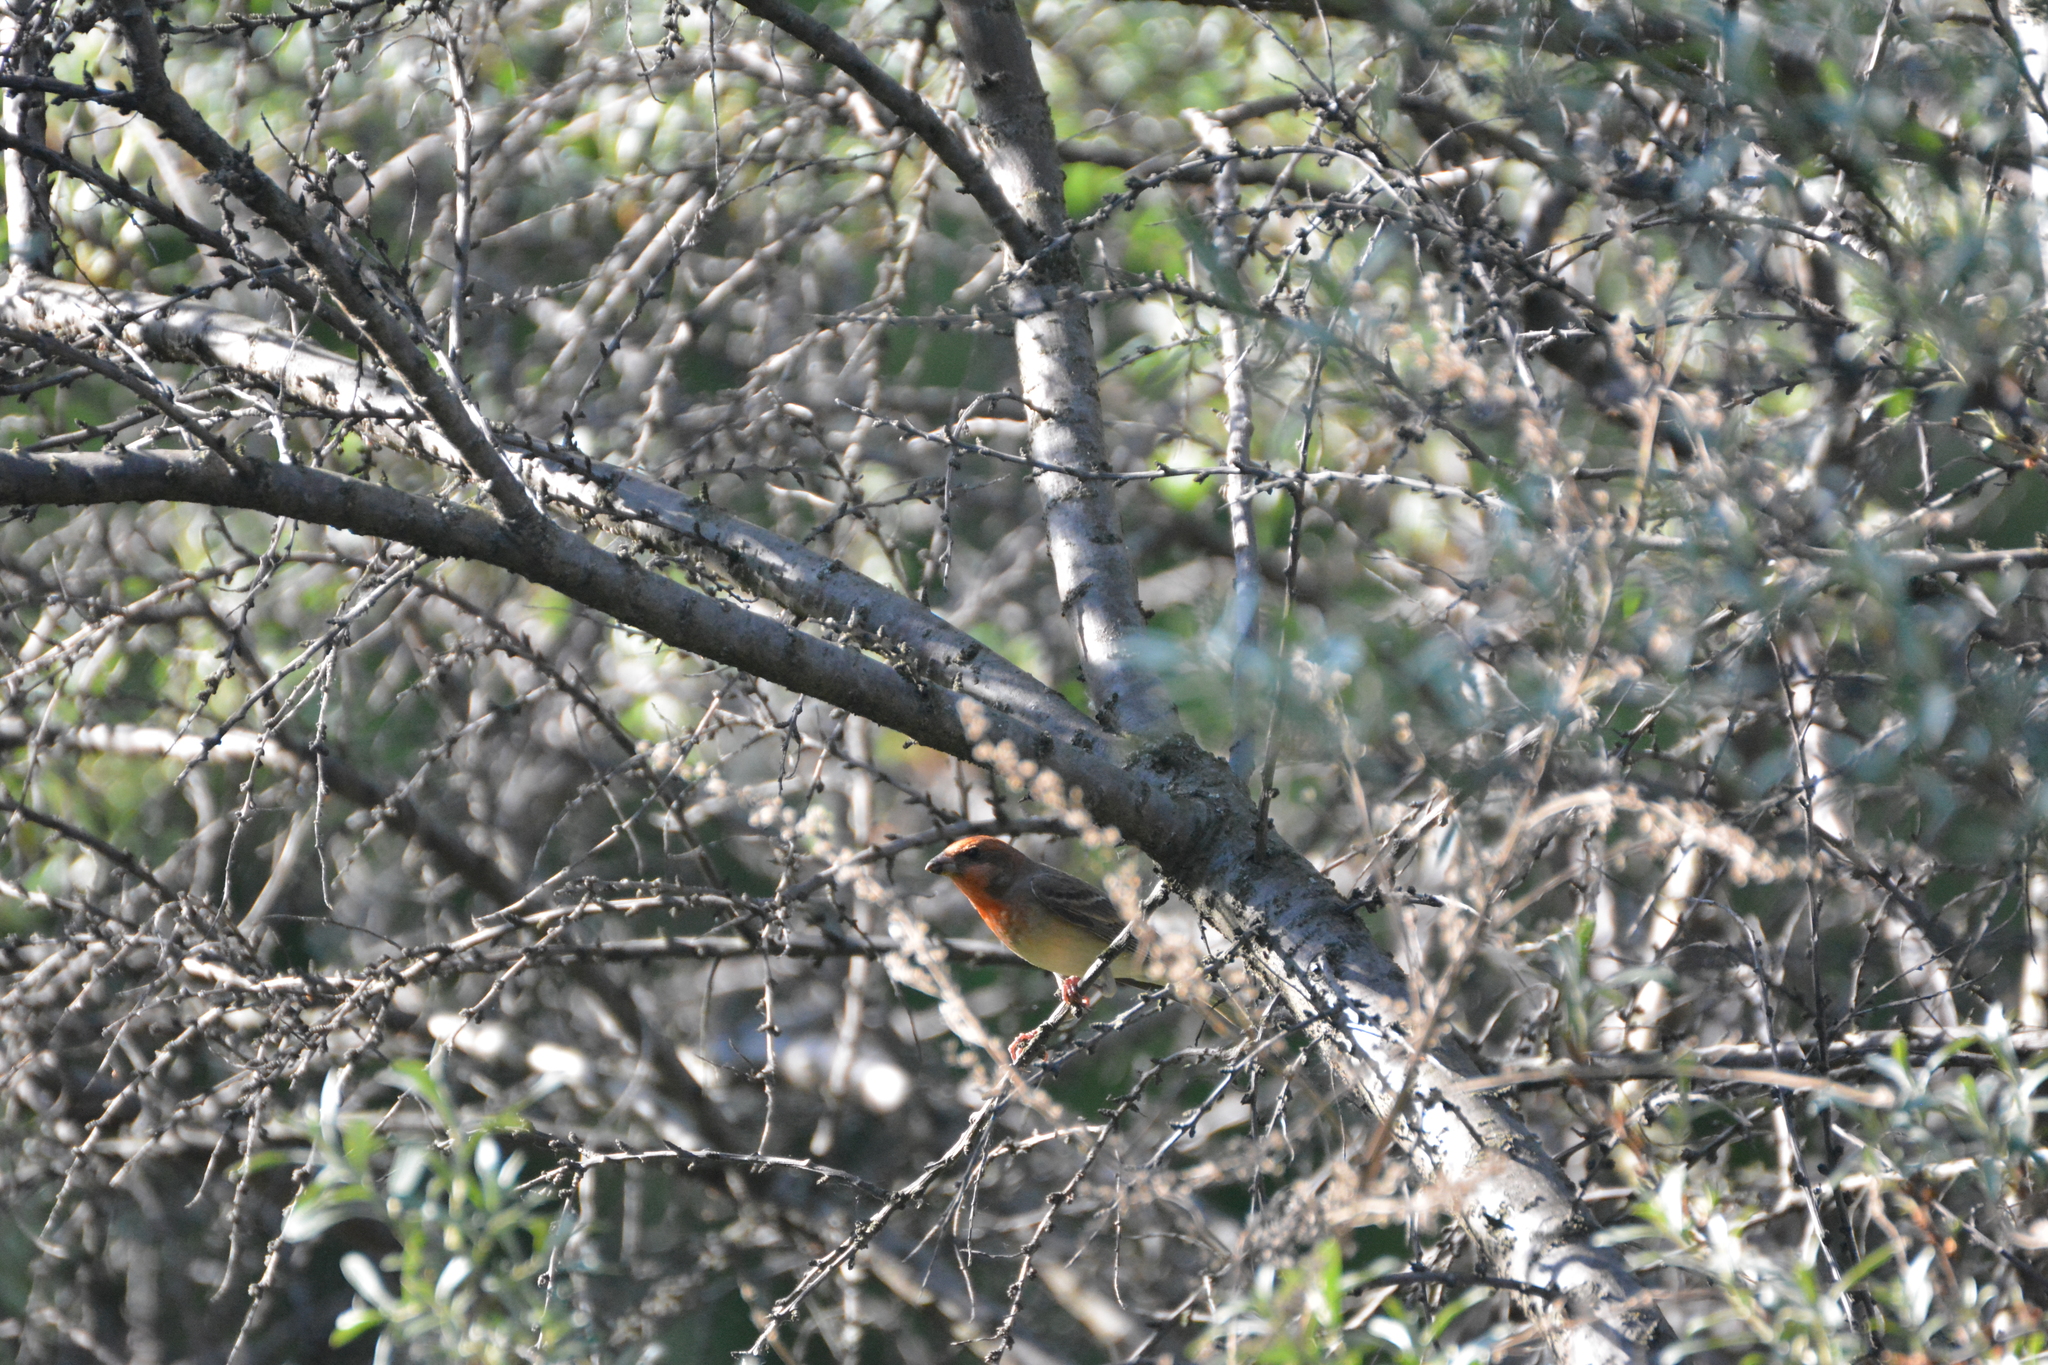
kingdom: Animalia
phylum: Chordata
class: Aves
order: Passeriformes
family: Fringillidae
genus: Carpodacus
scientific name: Carpodacus erythrinus
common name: Common rosefinch
